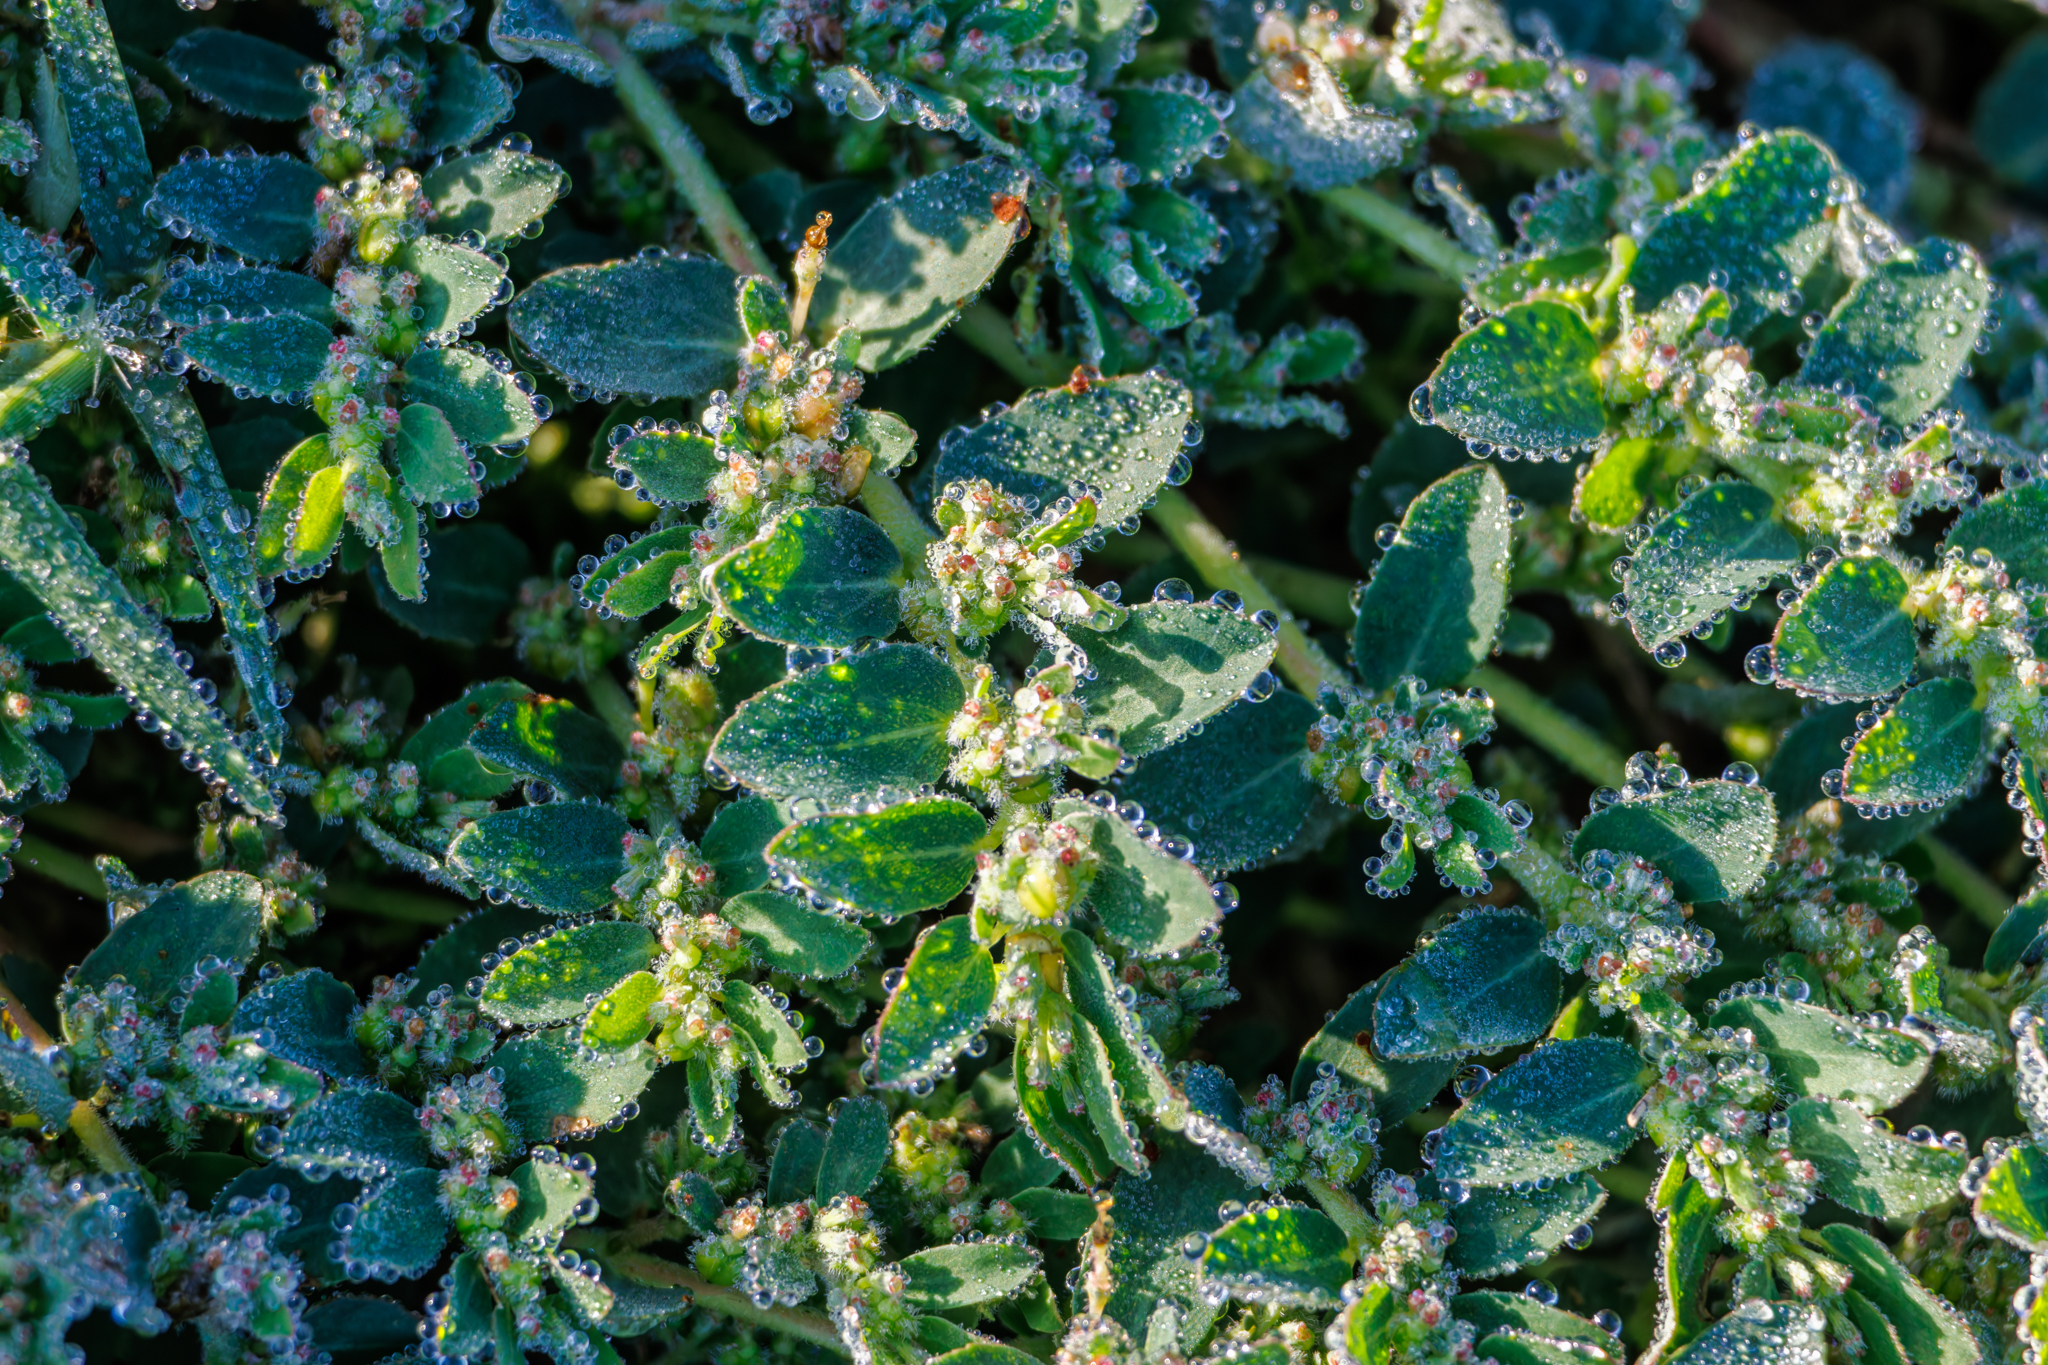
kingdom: Plantae
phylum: Tracheophyta
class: Magnoliopsida
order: Malpighiales
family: Euphorbiaceae
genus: Euphorbia
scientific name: Euphorbia prostrata
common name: Prostrate sandmat
